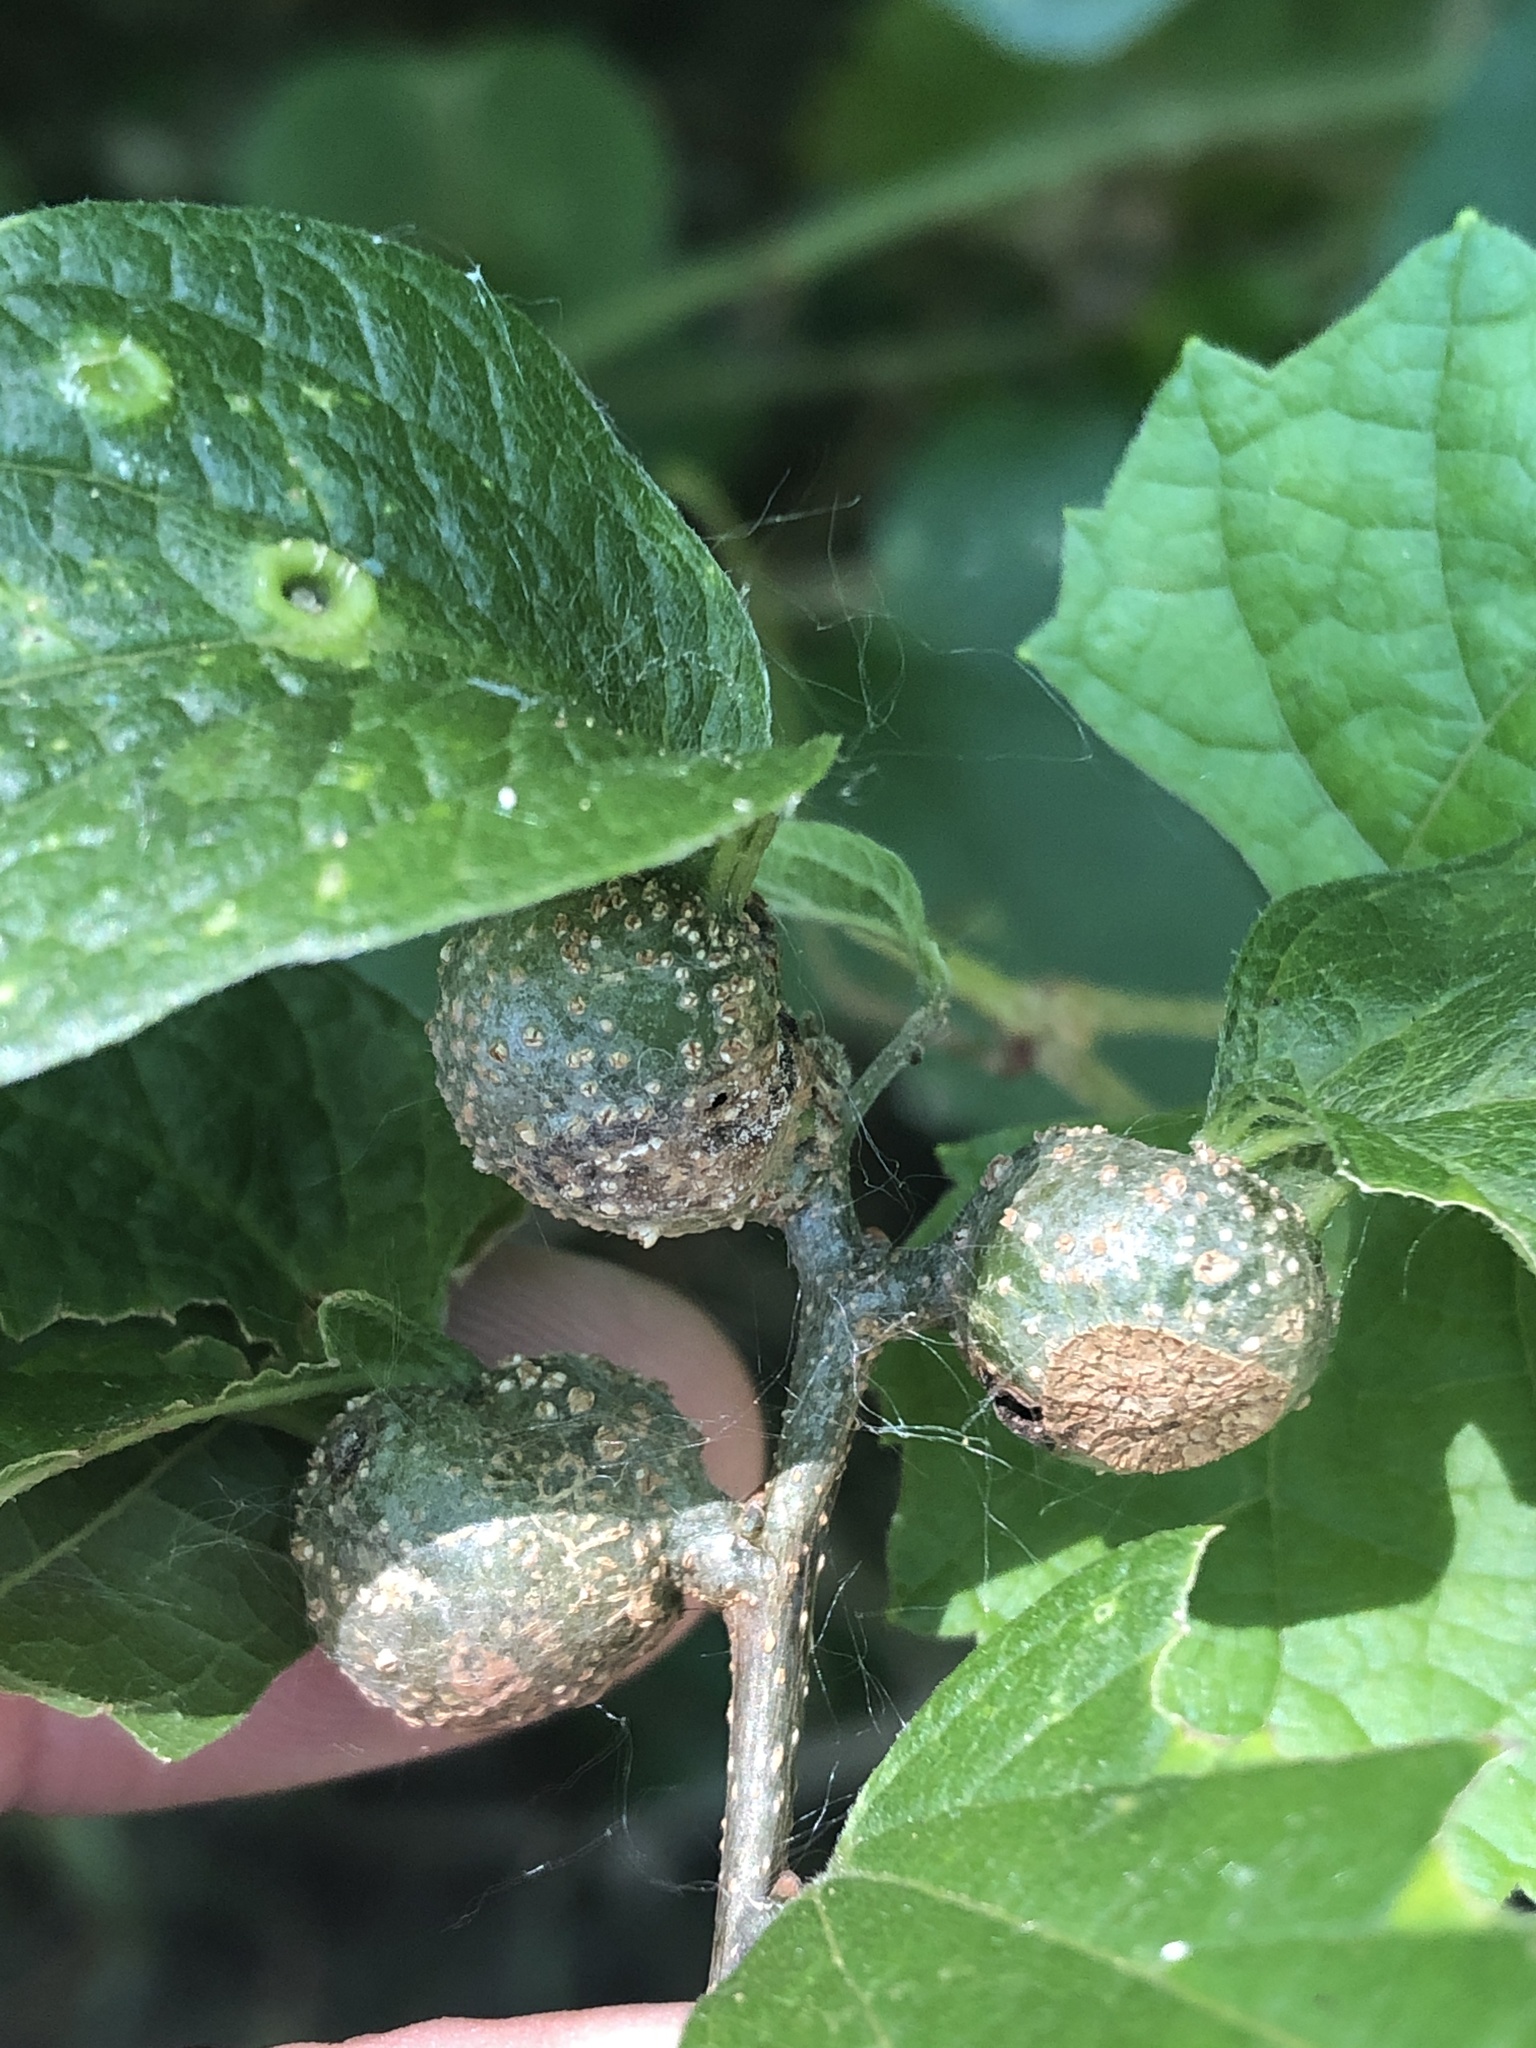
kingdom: Animalia
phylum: Arthropoda
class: Insecta
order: Hemiptera
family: Aphalaridae
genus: Pachypsylla
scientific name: Pachypsylla venusta
